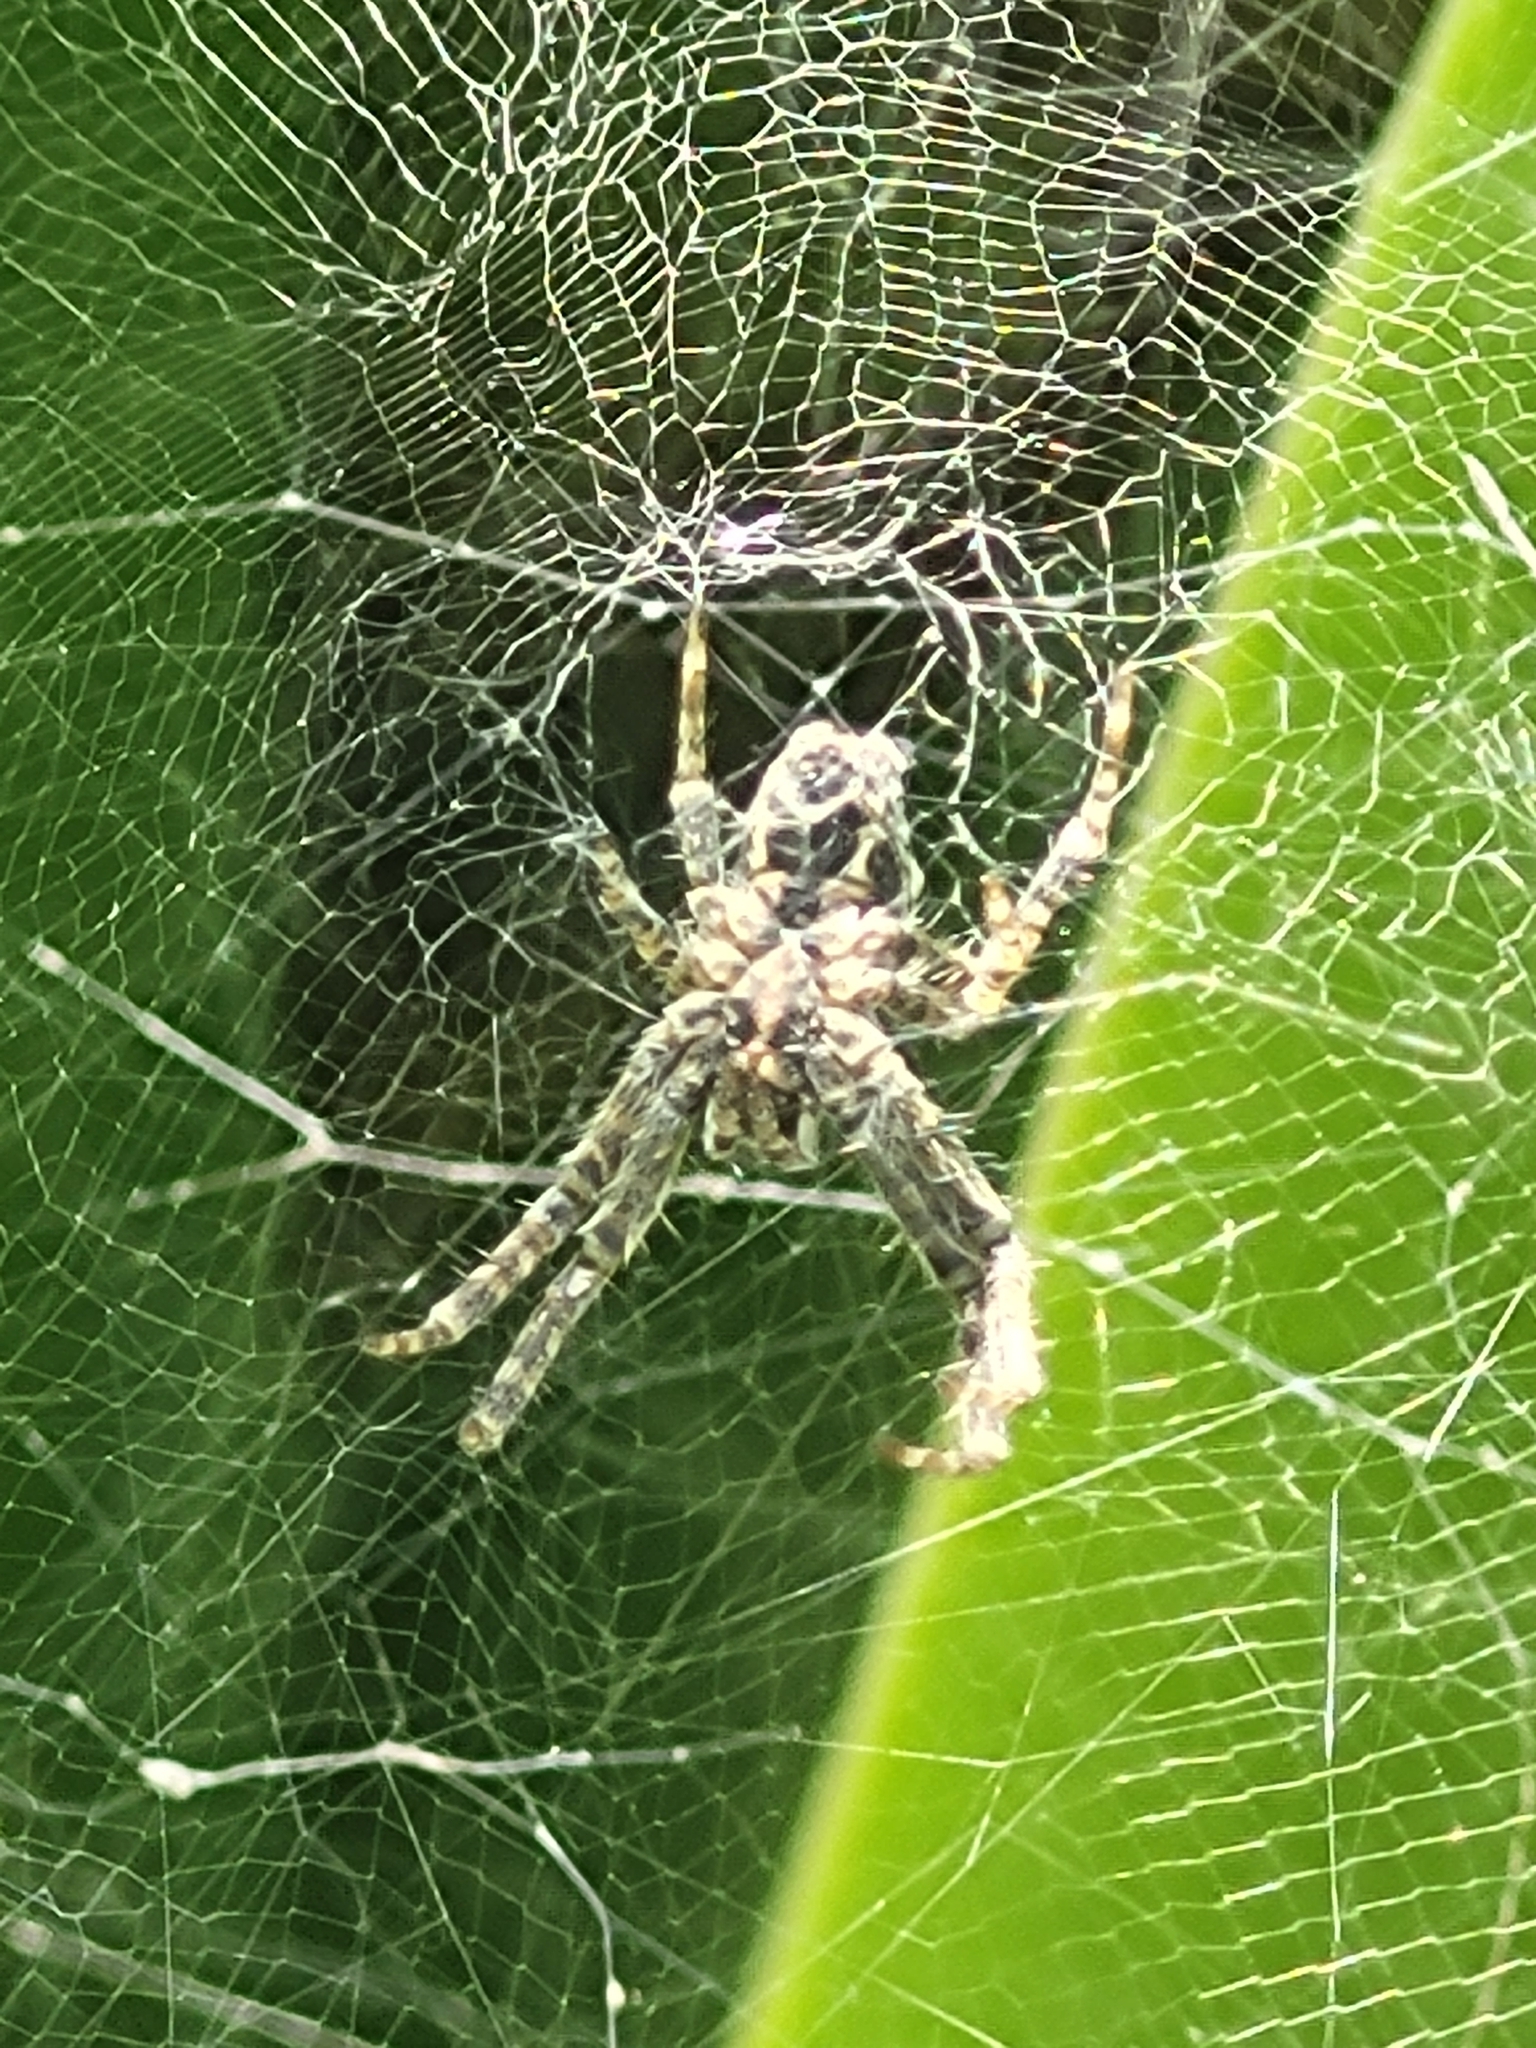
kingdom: Animalia
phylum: Arthropoda
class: Arachnida
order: Araneae
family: Araneidae
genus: Cyrtophora
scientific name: Cyrtophora citricola
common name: Orb weavers
